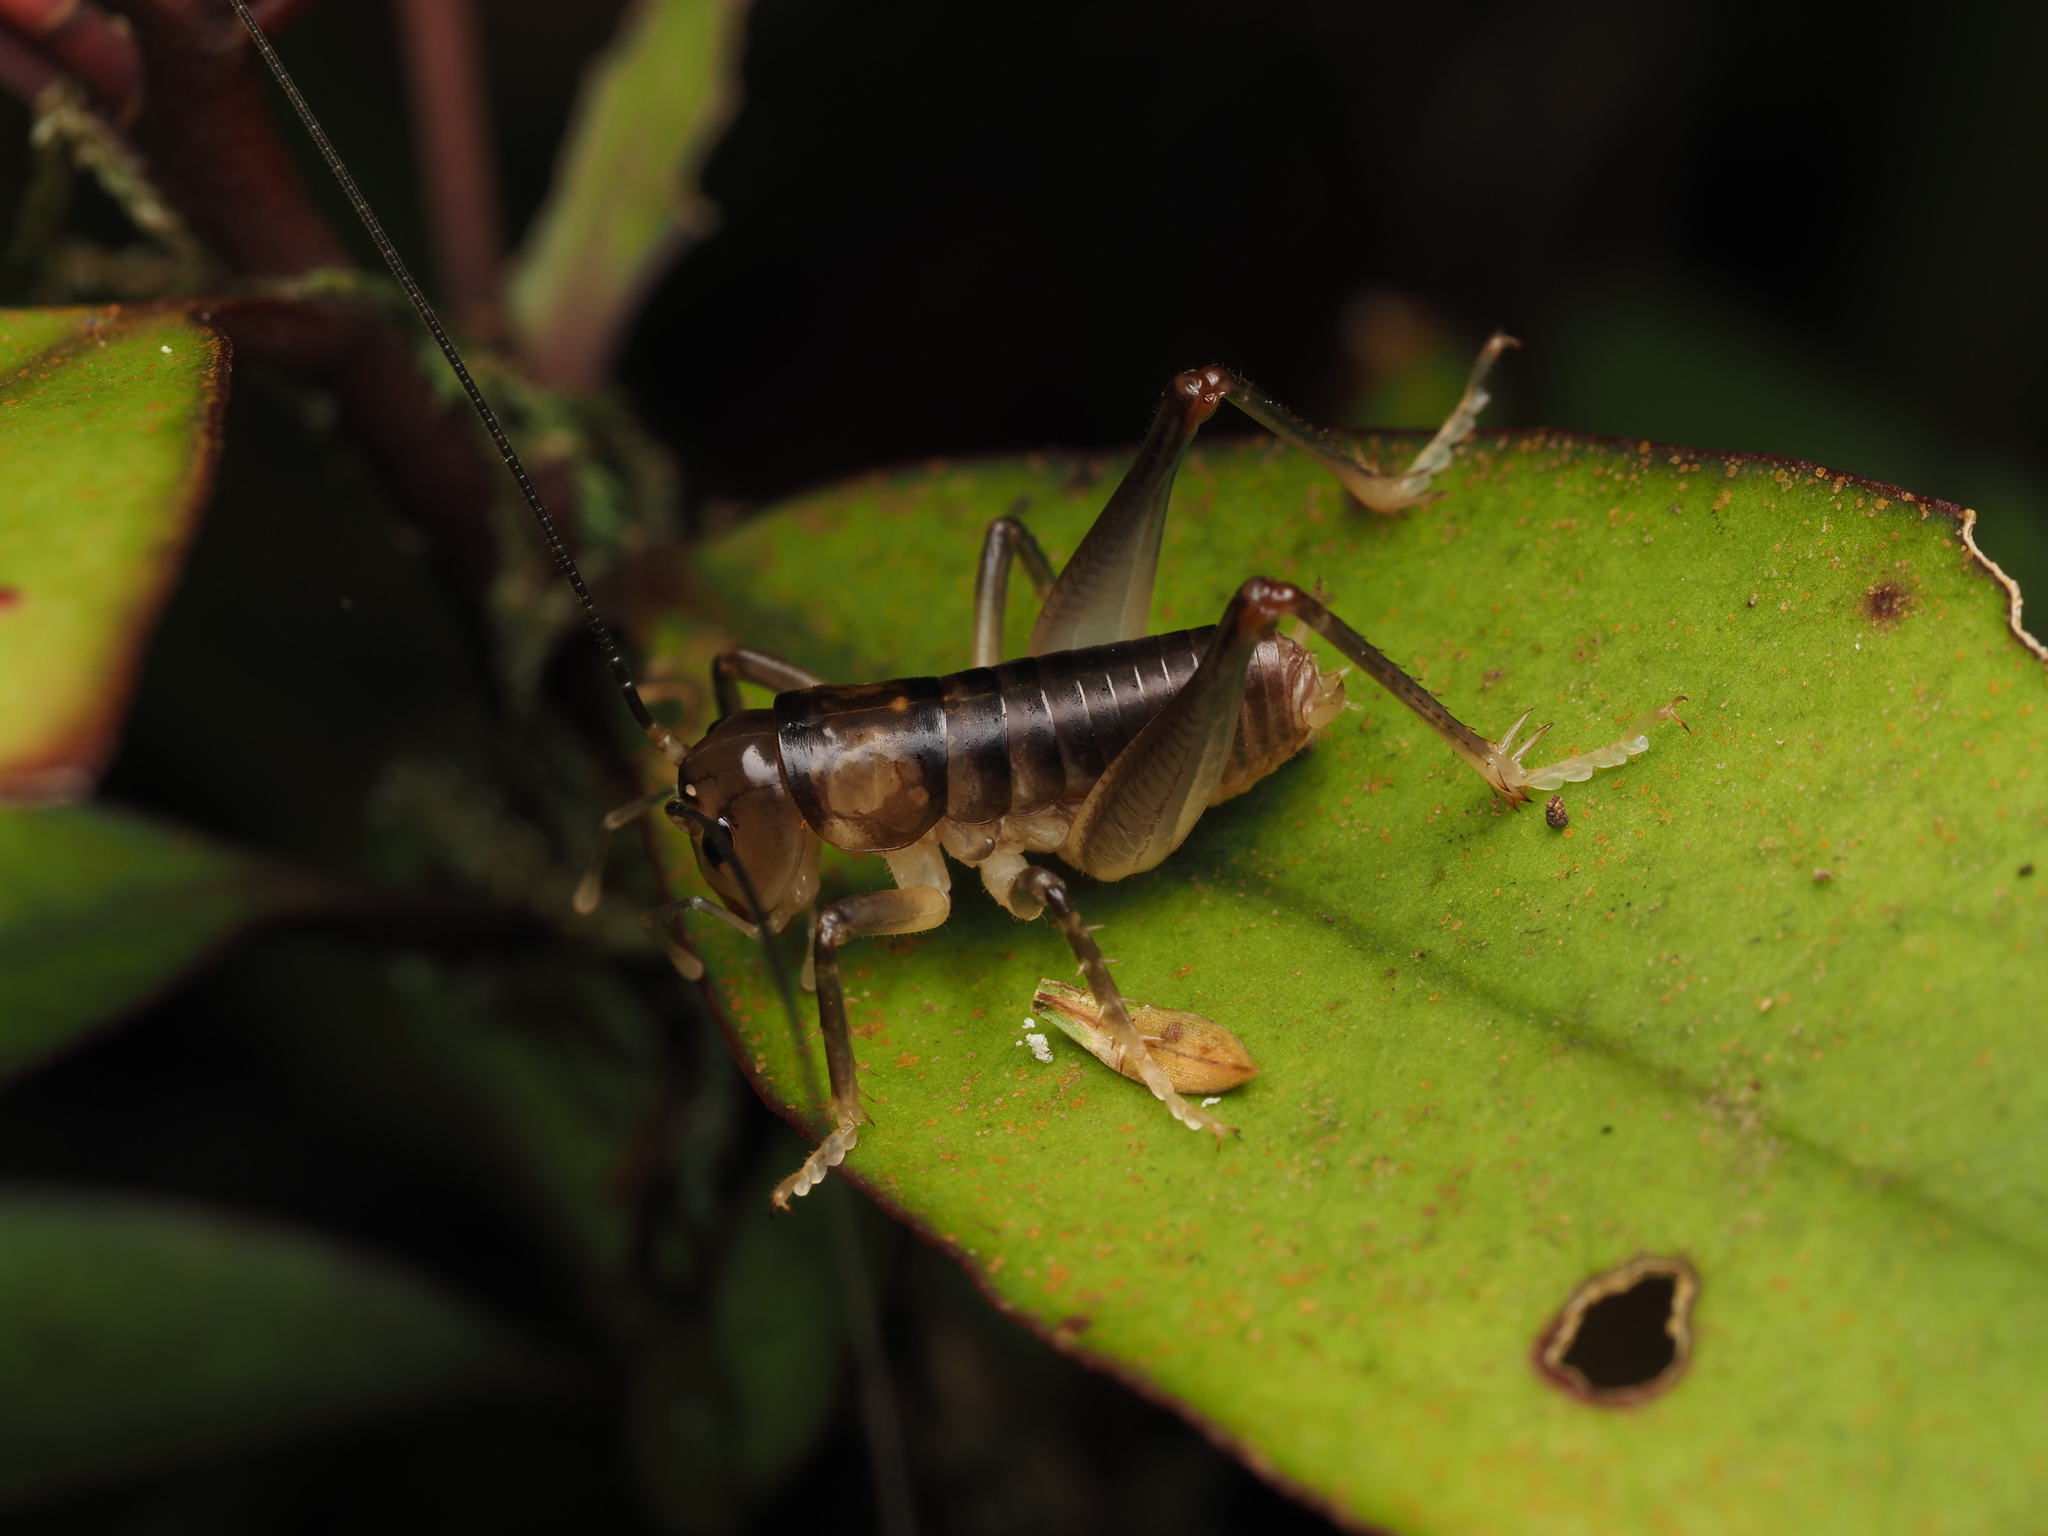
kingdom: Animalia
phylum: Arthropoda
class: Insecta
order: Orthoptera
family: Anostostomatidae
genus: Hemiandrus
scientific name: Hemiandrus pallitarsis
